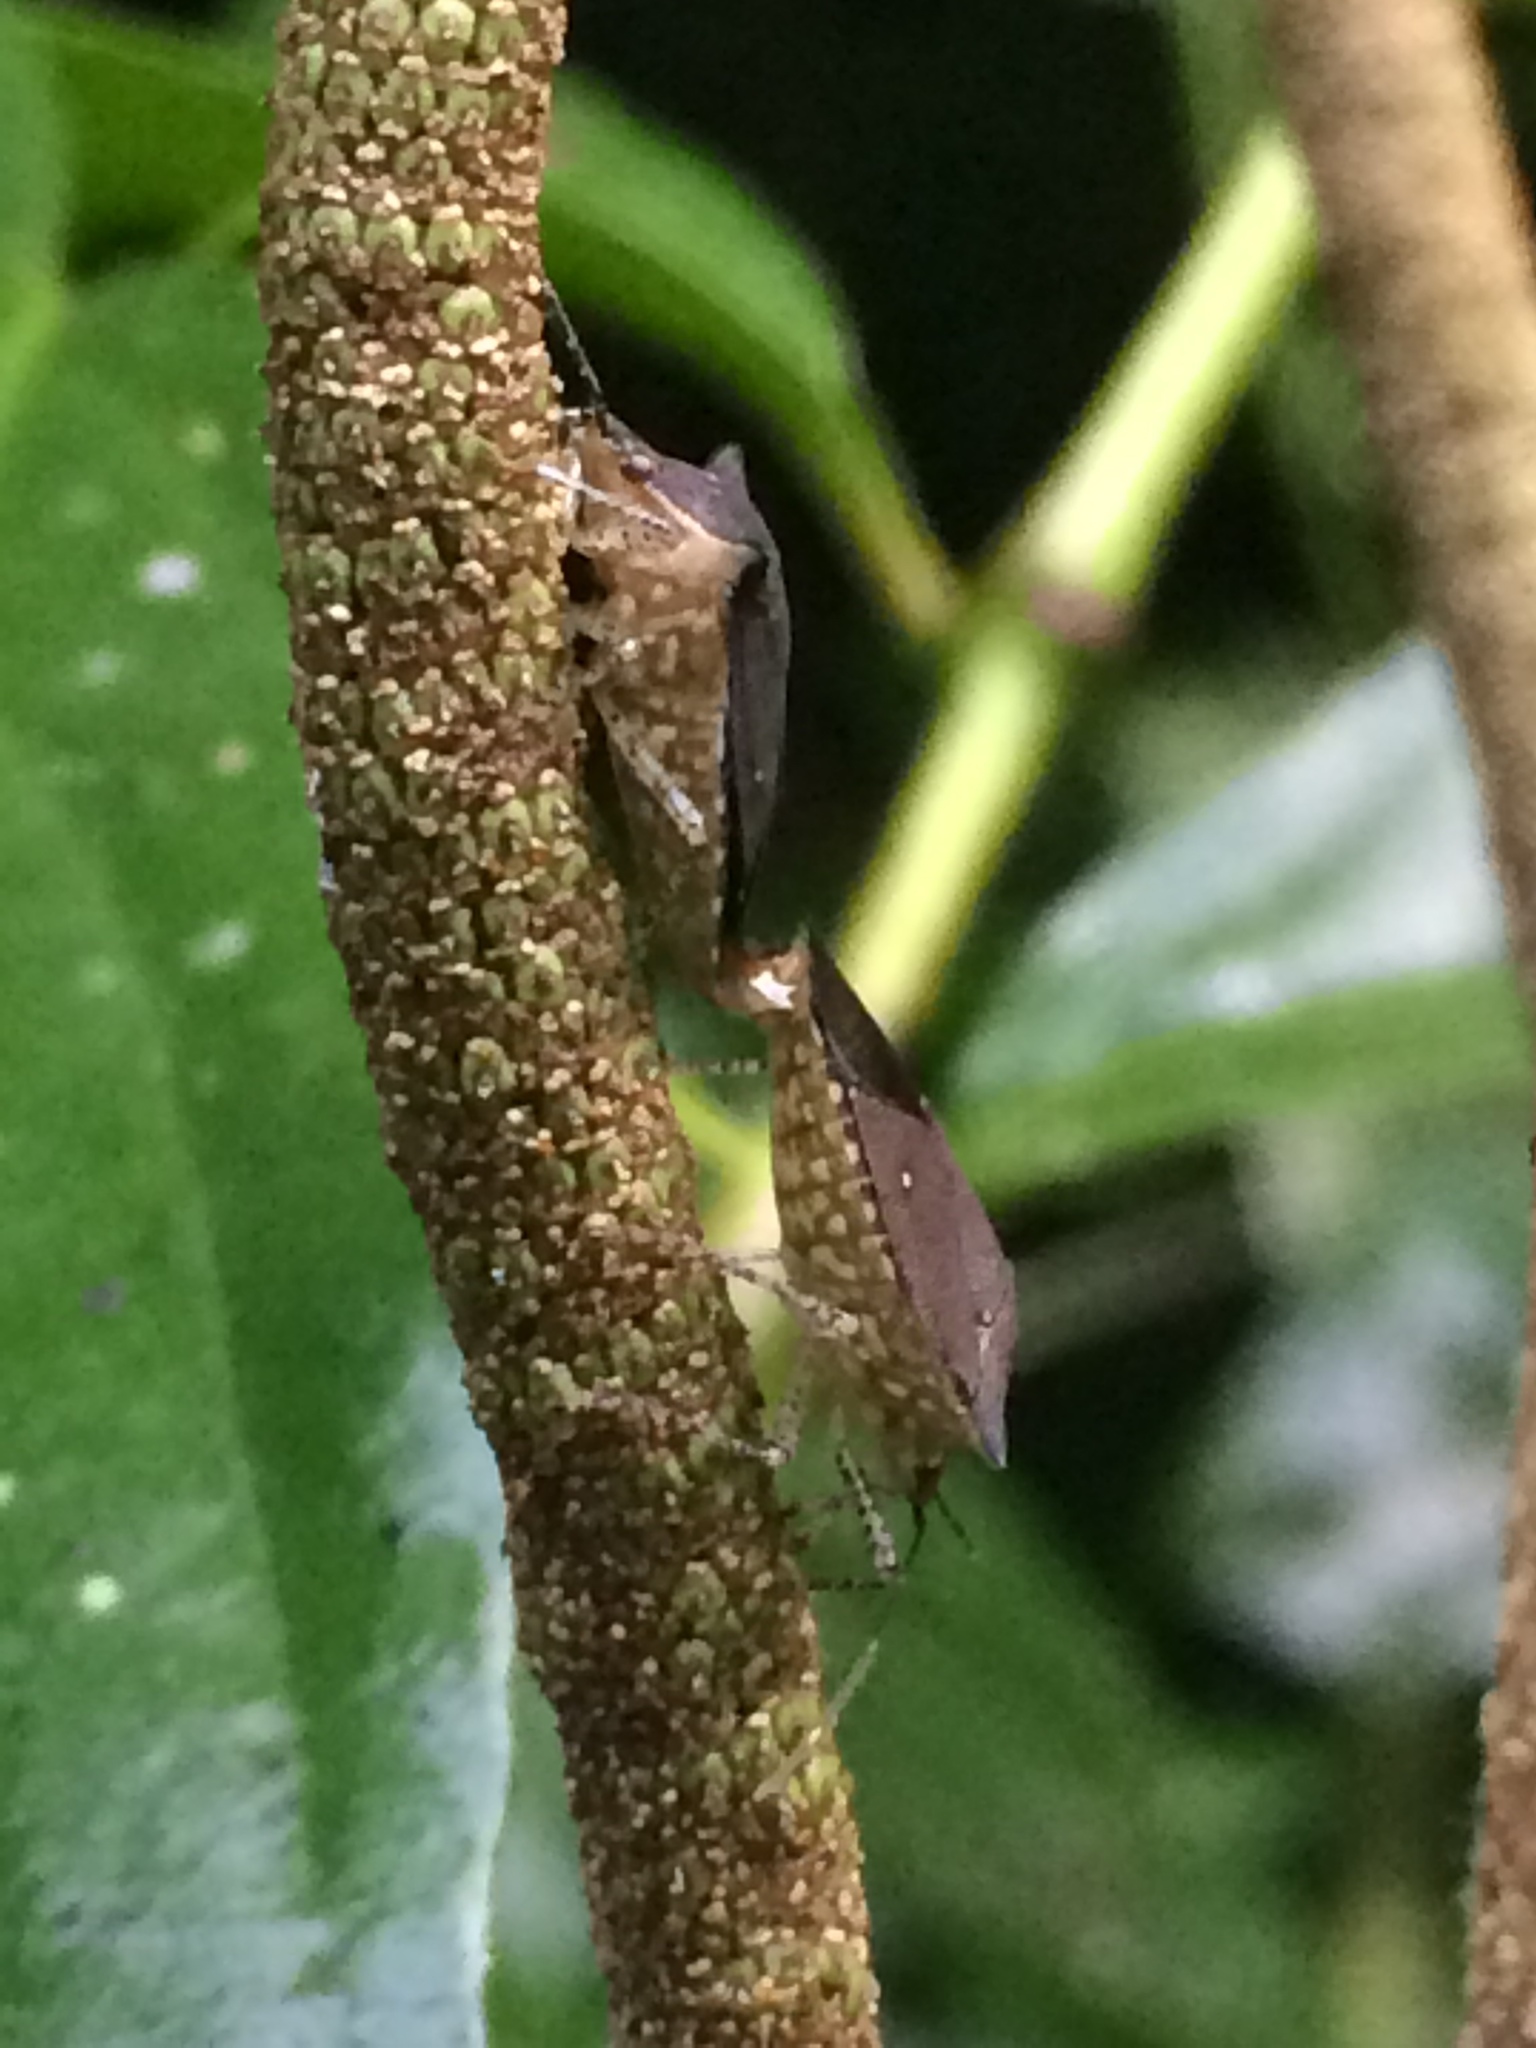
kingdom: Animalia
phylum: Arthropoda
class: Insecta
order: Hemiptera
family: Pentatomidae
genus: Sibaria
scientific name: Sibaria armata
